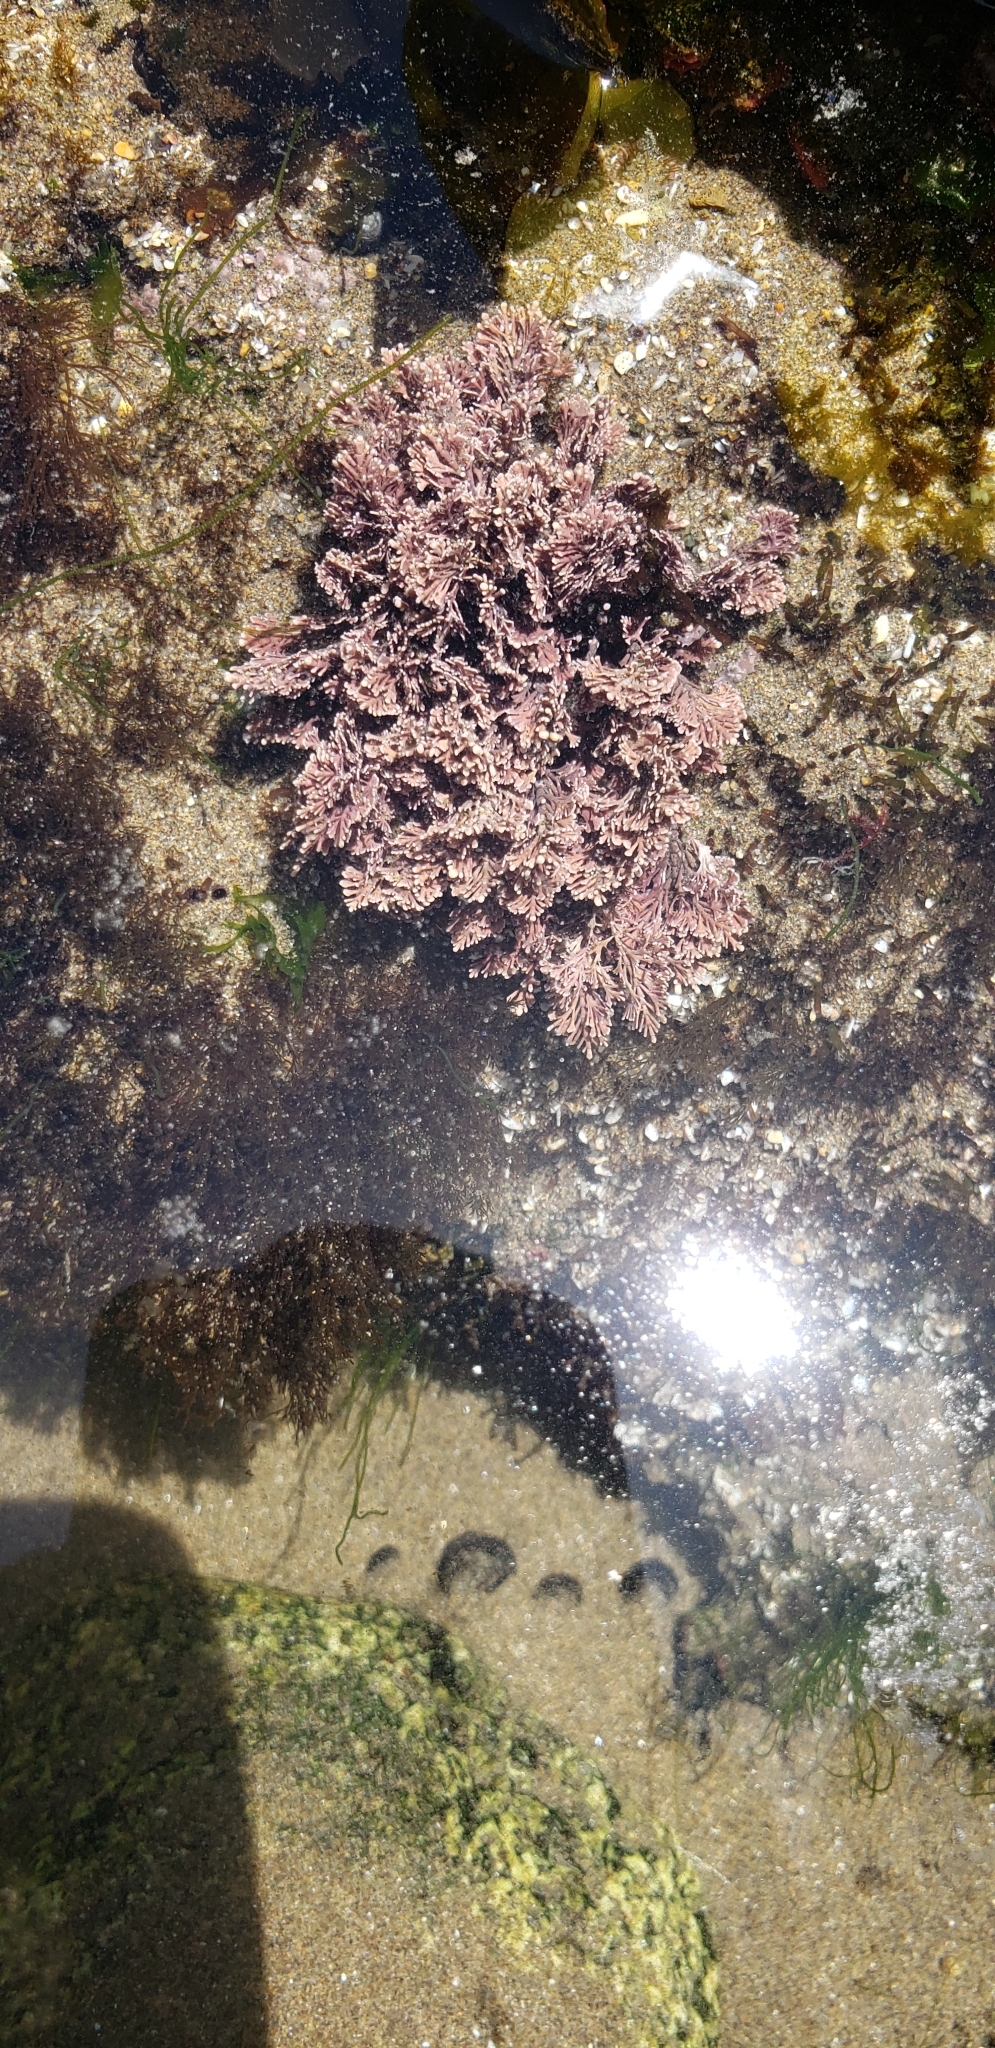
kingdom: Plantae
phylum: Rhodophyta
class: Florideophyceae
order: Corallinales
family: Corallinaceae
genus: Corallina
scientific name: Corallina officinalis
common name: Coral weed
